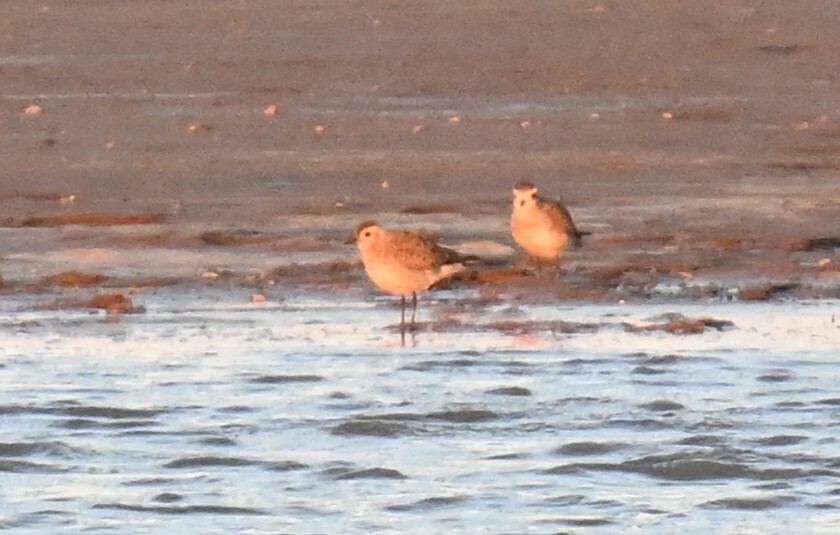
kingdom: Animalia
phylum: Chordata
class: Aves
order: Charadriiformes
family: Charadriidae
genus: Pluvialis
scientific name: Pluvialis dominica
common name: American golden plover
